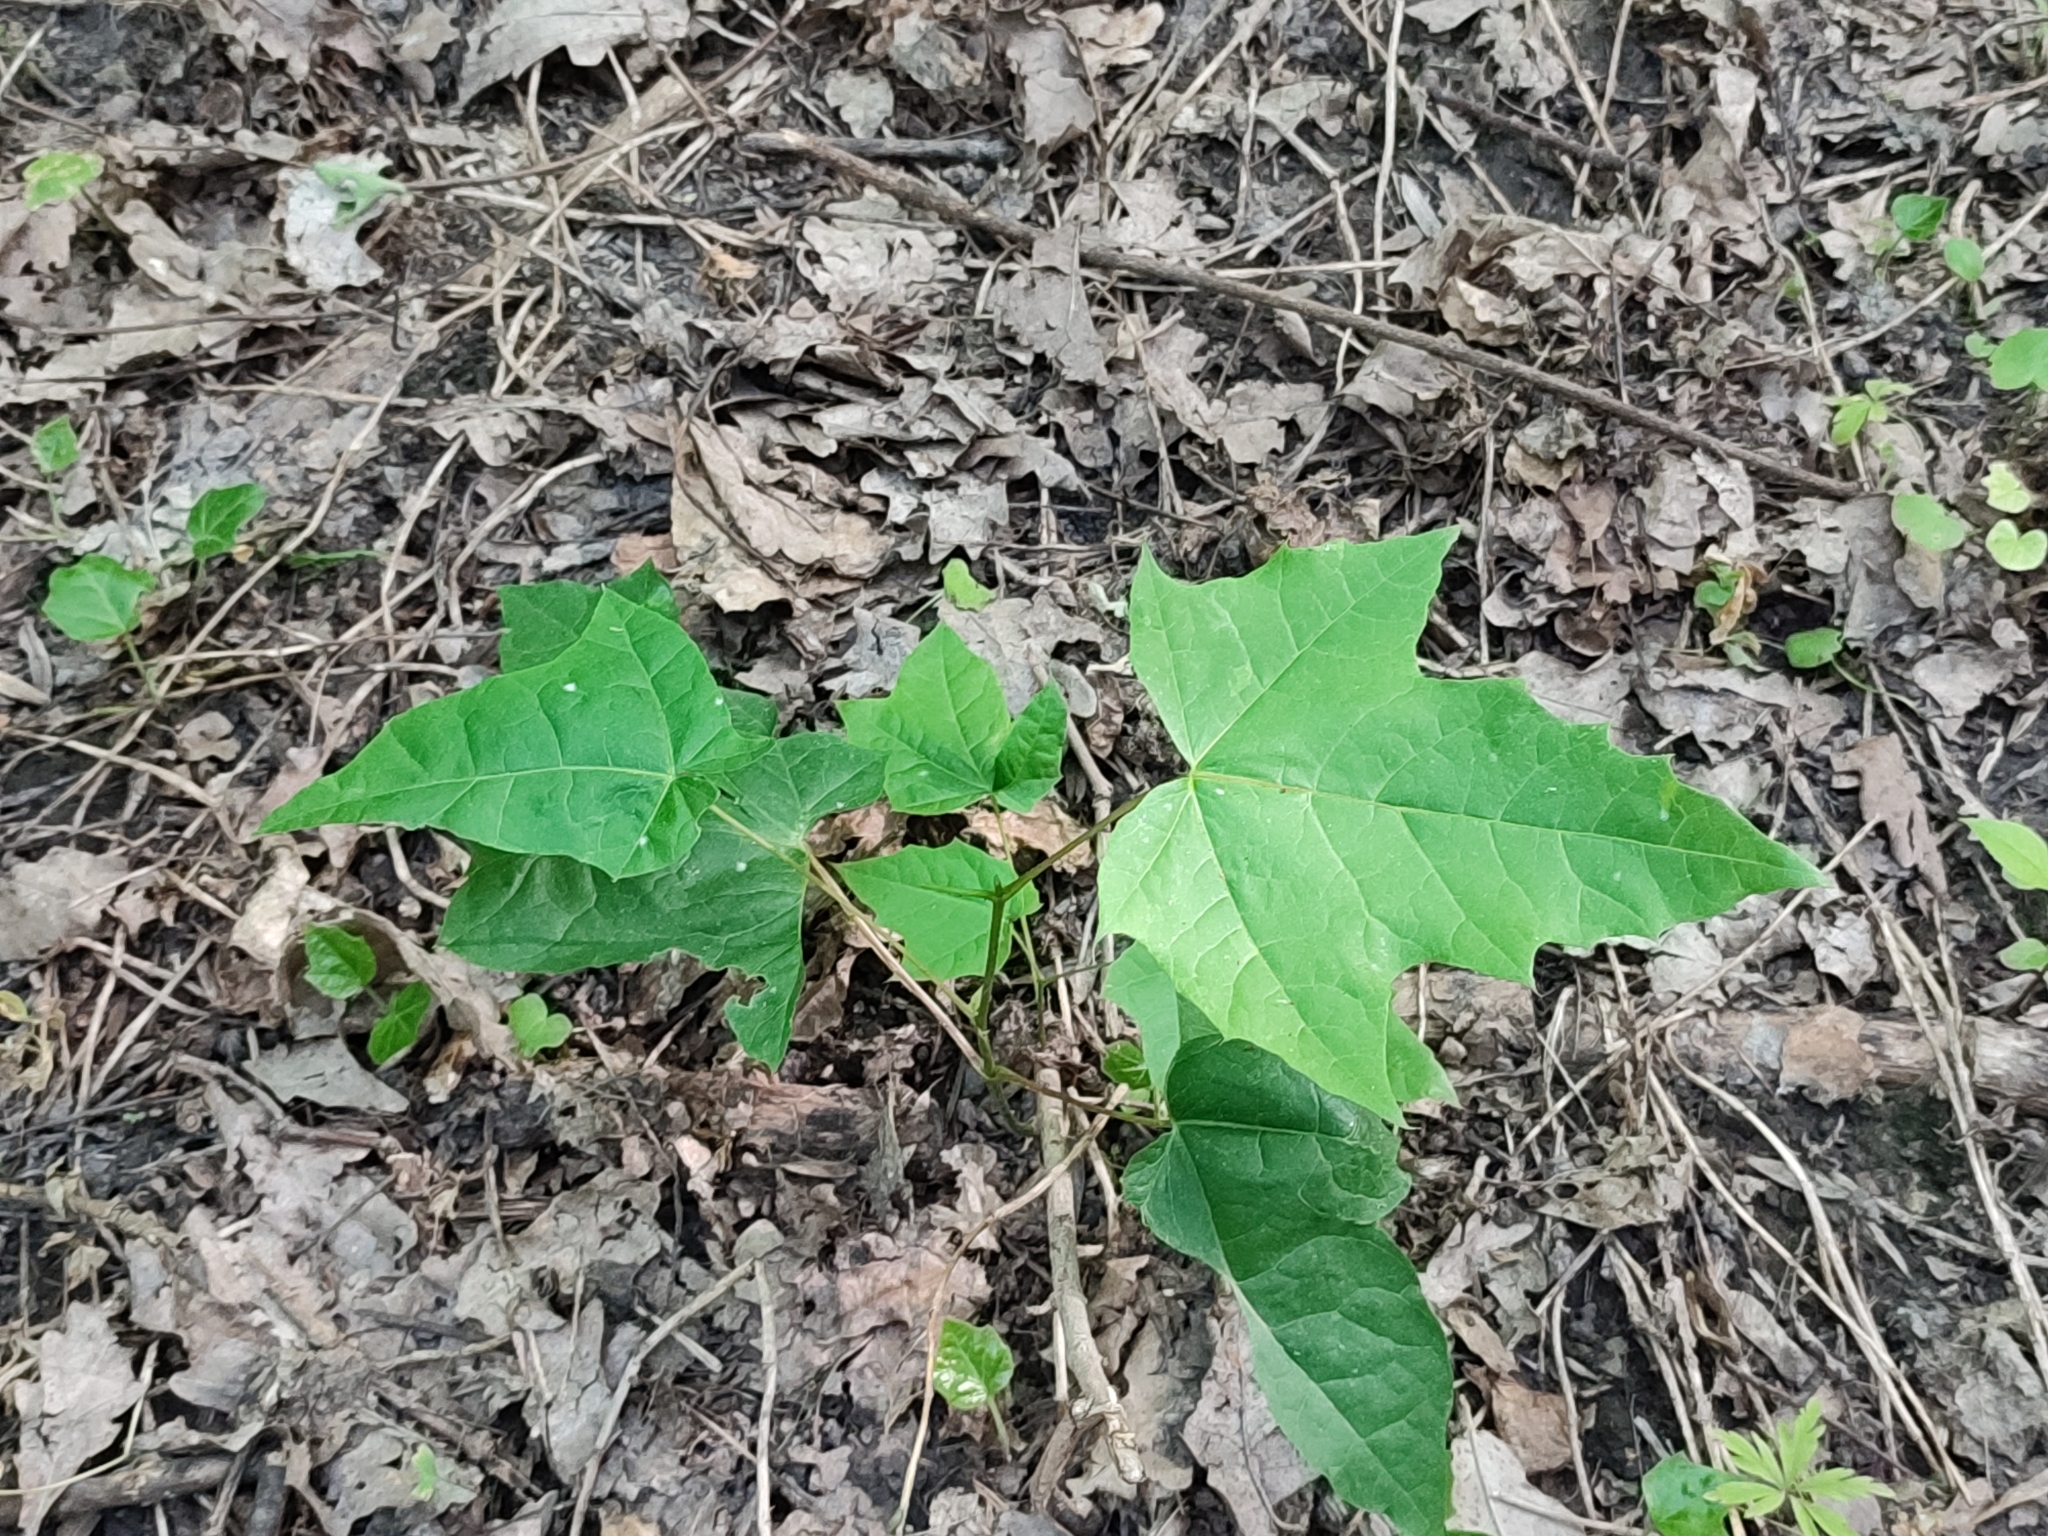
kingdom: Plantae
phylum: Tracheophyta
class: Magnoliopsida
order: Sapindales
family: Sapindaceae
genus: Acer
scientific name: Acer platanoides
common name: Norway maple
